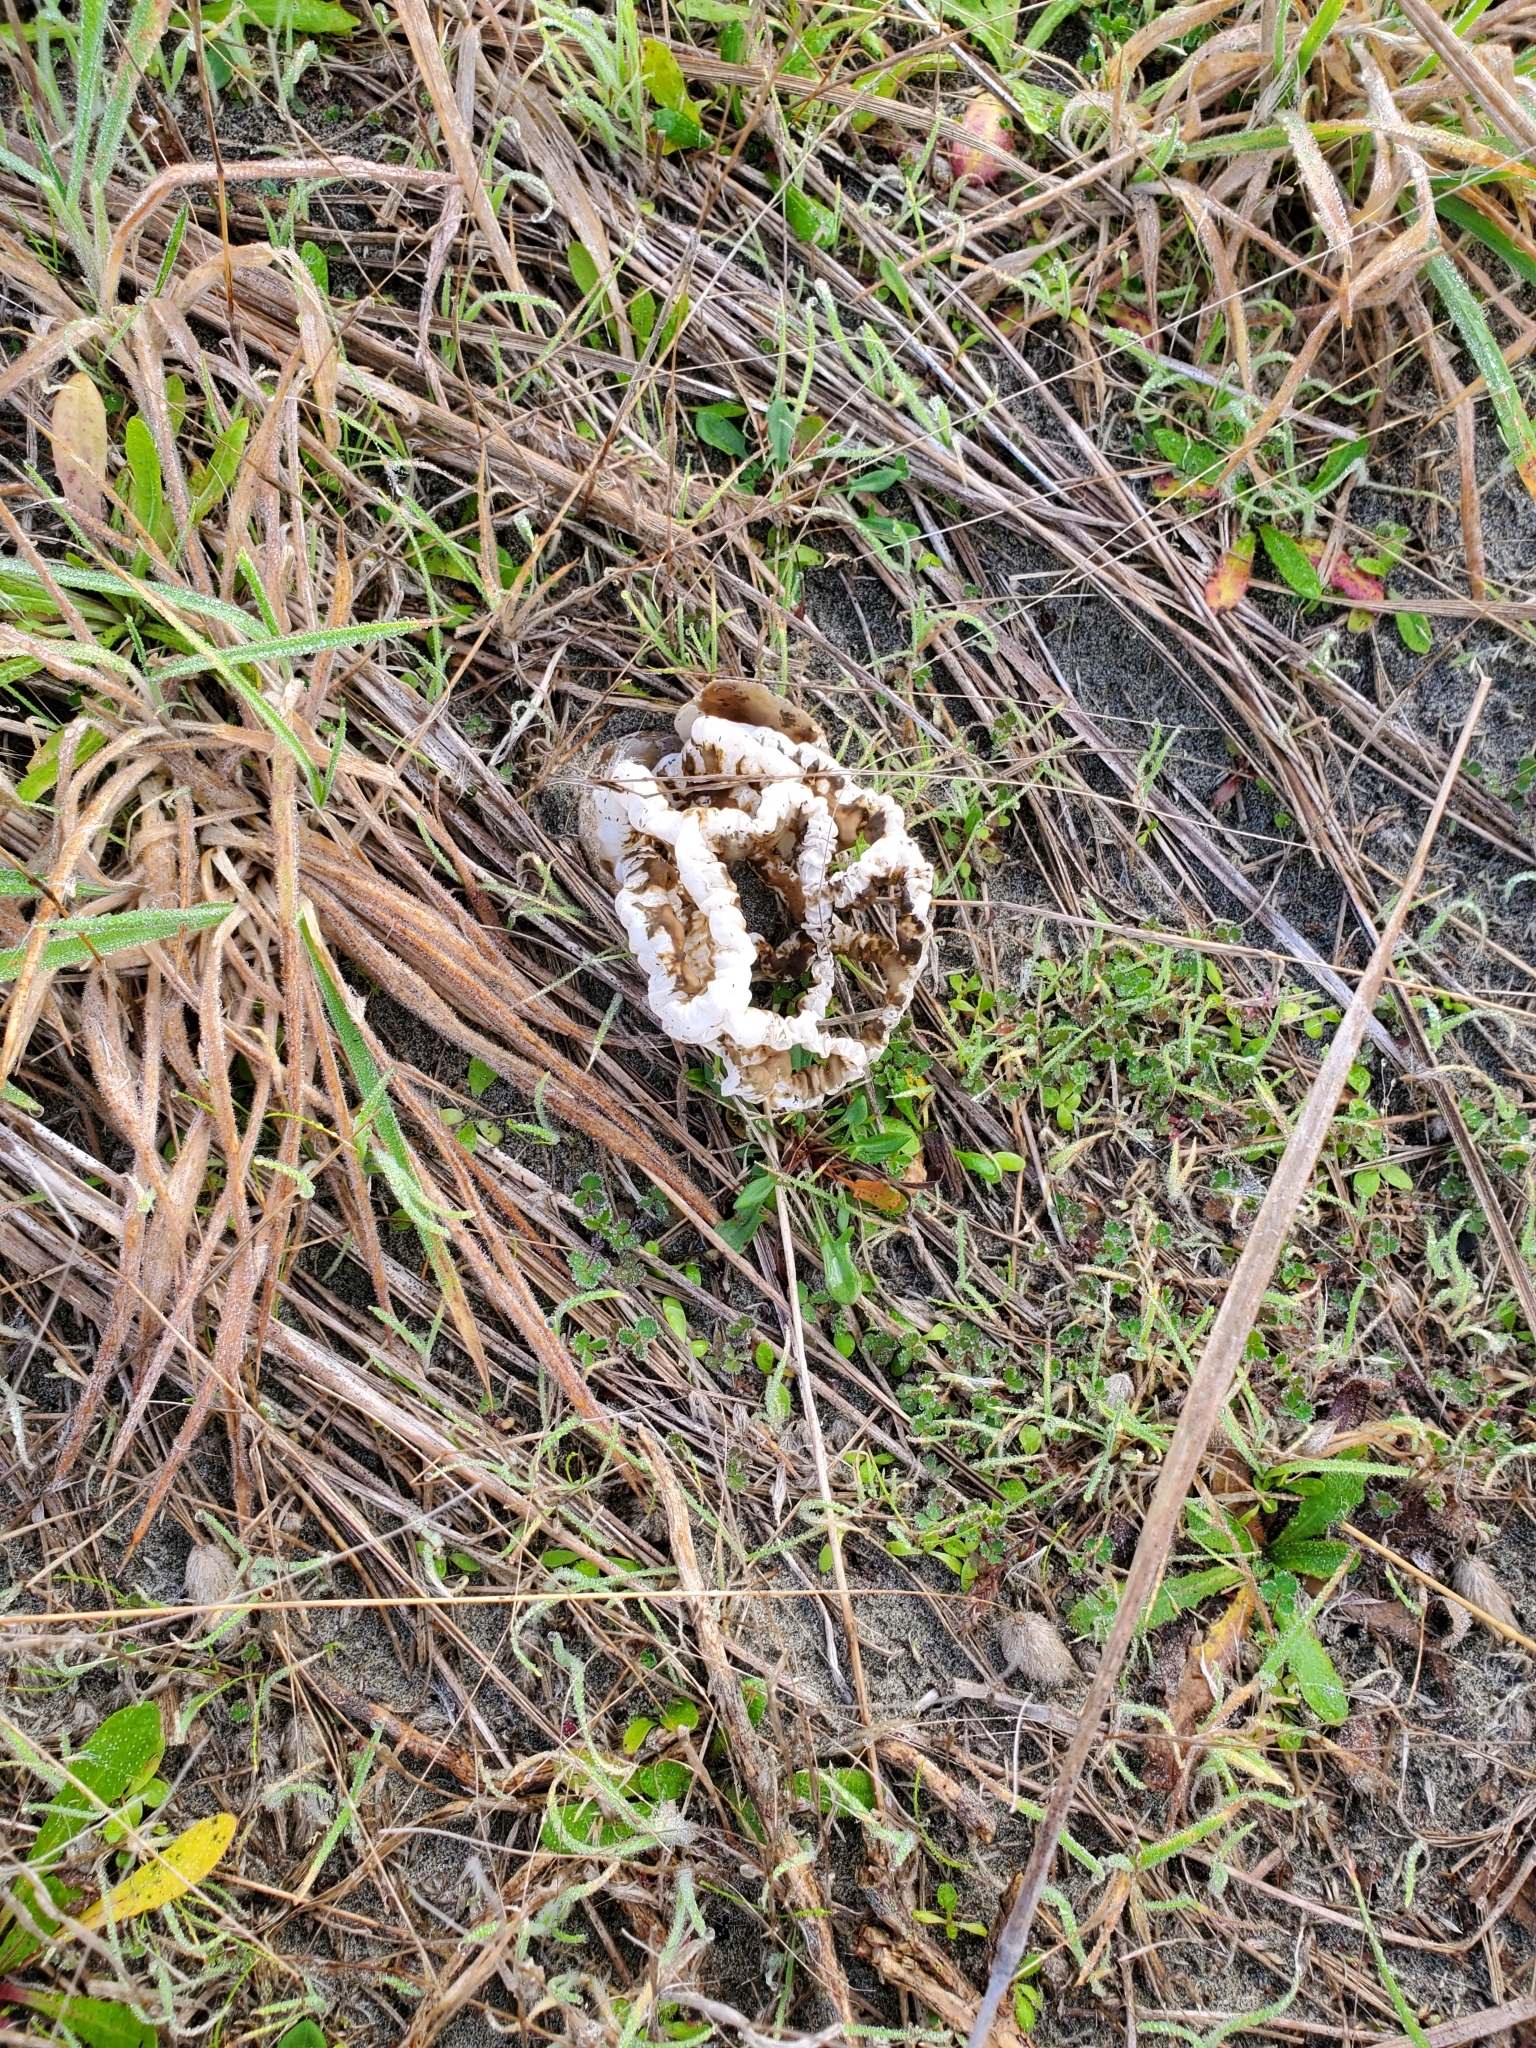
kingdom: Fungi
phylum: Basidiomycota
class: Agaricomycetes
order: Phallales
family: Phallaceae
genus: Ileodictyon
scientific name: Ileodictyon cibarium
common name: Basket fungus
